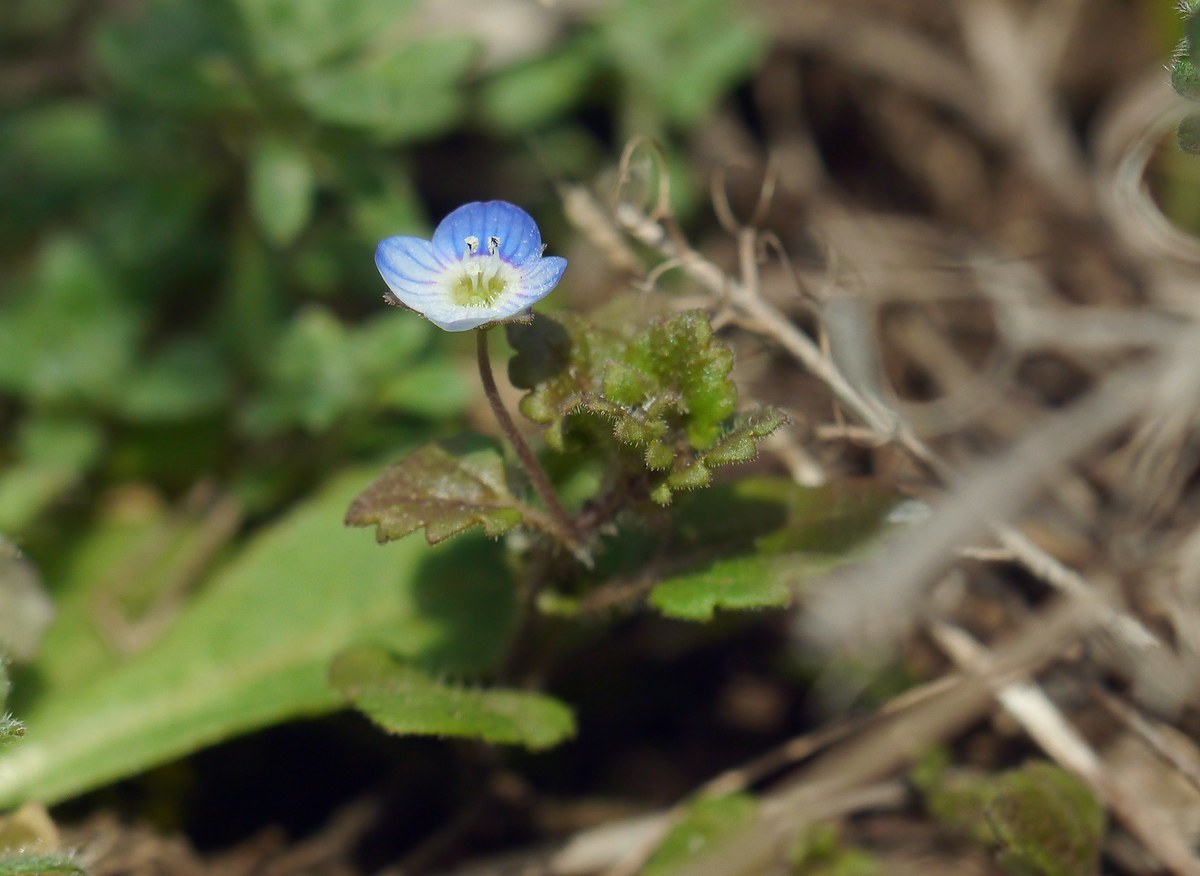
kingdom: Plantae
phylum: Tracheophyta
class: Magnoliopsida
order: Lamiales
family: Plantaginaceae
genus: Veronica
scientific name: Veronica persica
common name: Common field-speedwell
